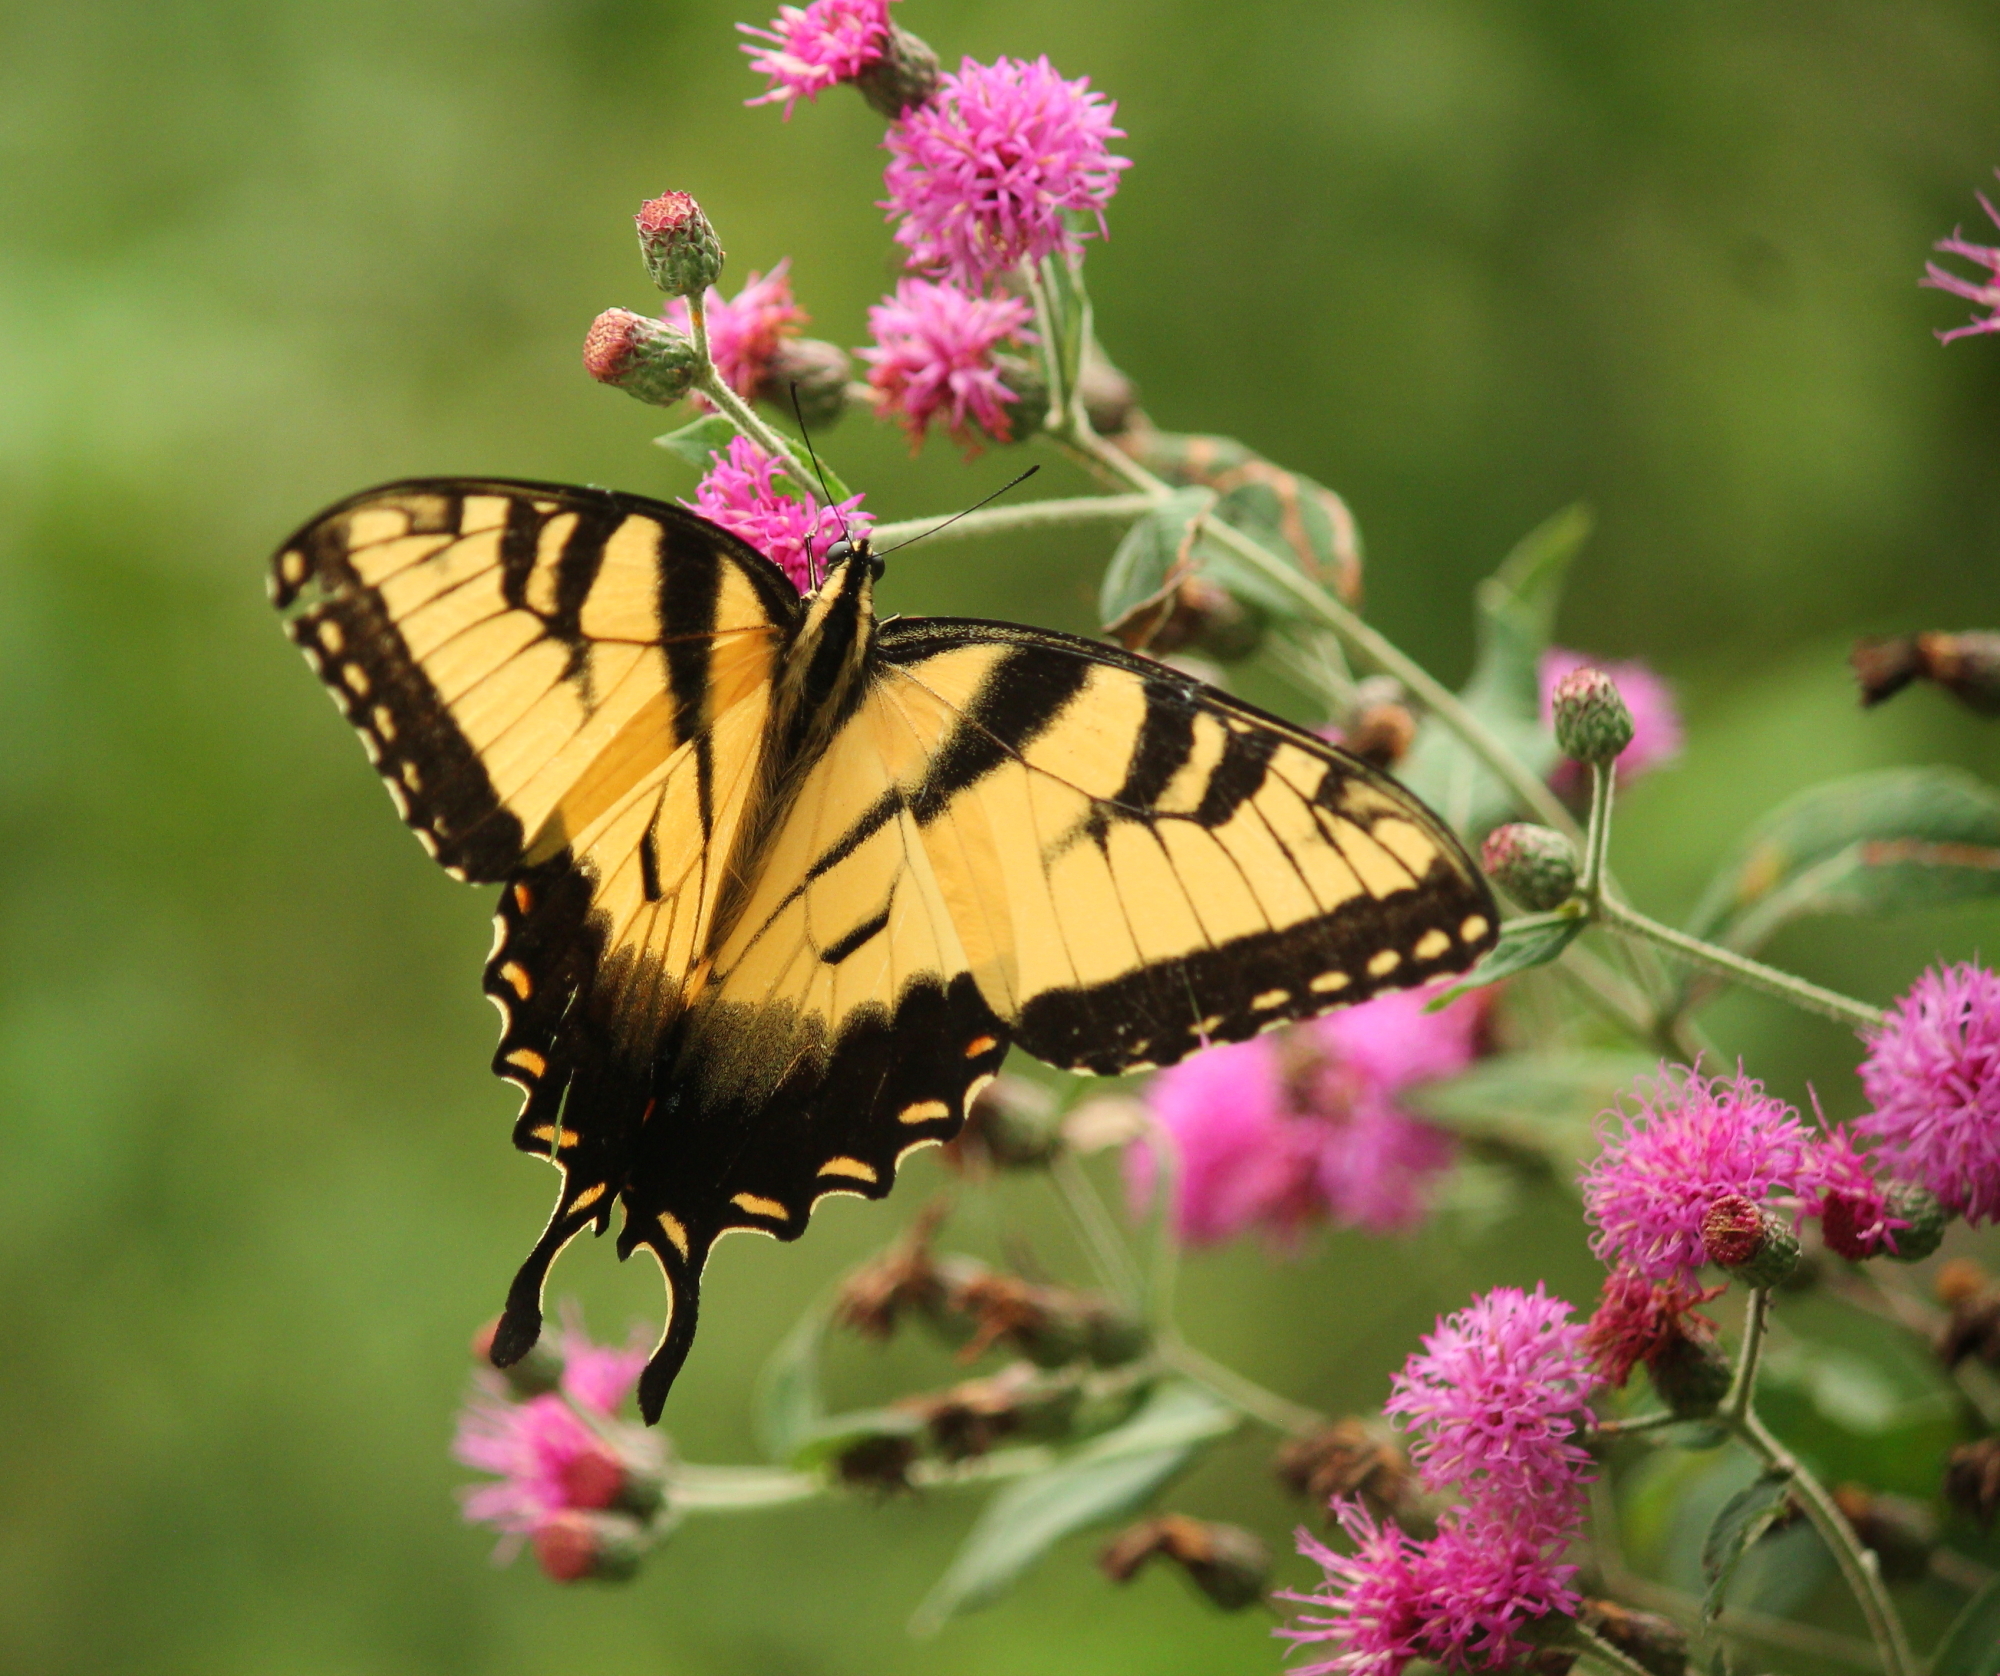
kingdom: Animalia
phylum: Arthropoda
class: Insecta
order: Lepidoptera
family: Papilionidae
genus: Papilio
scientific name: Papilio glaucus
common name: Tiger swallowtail
